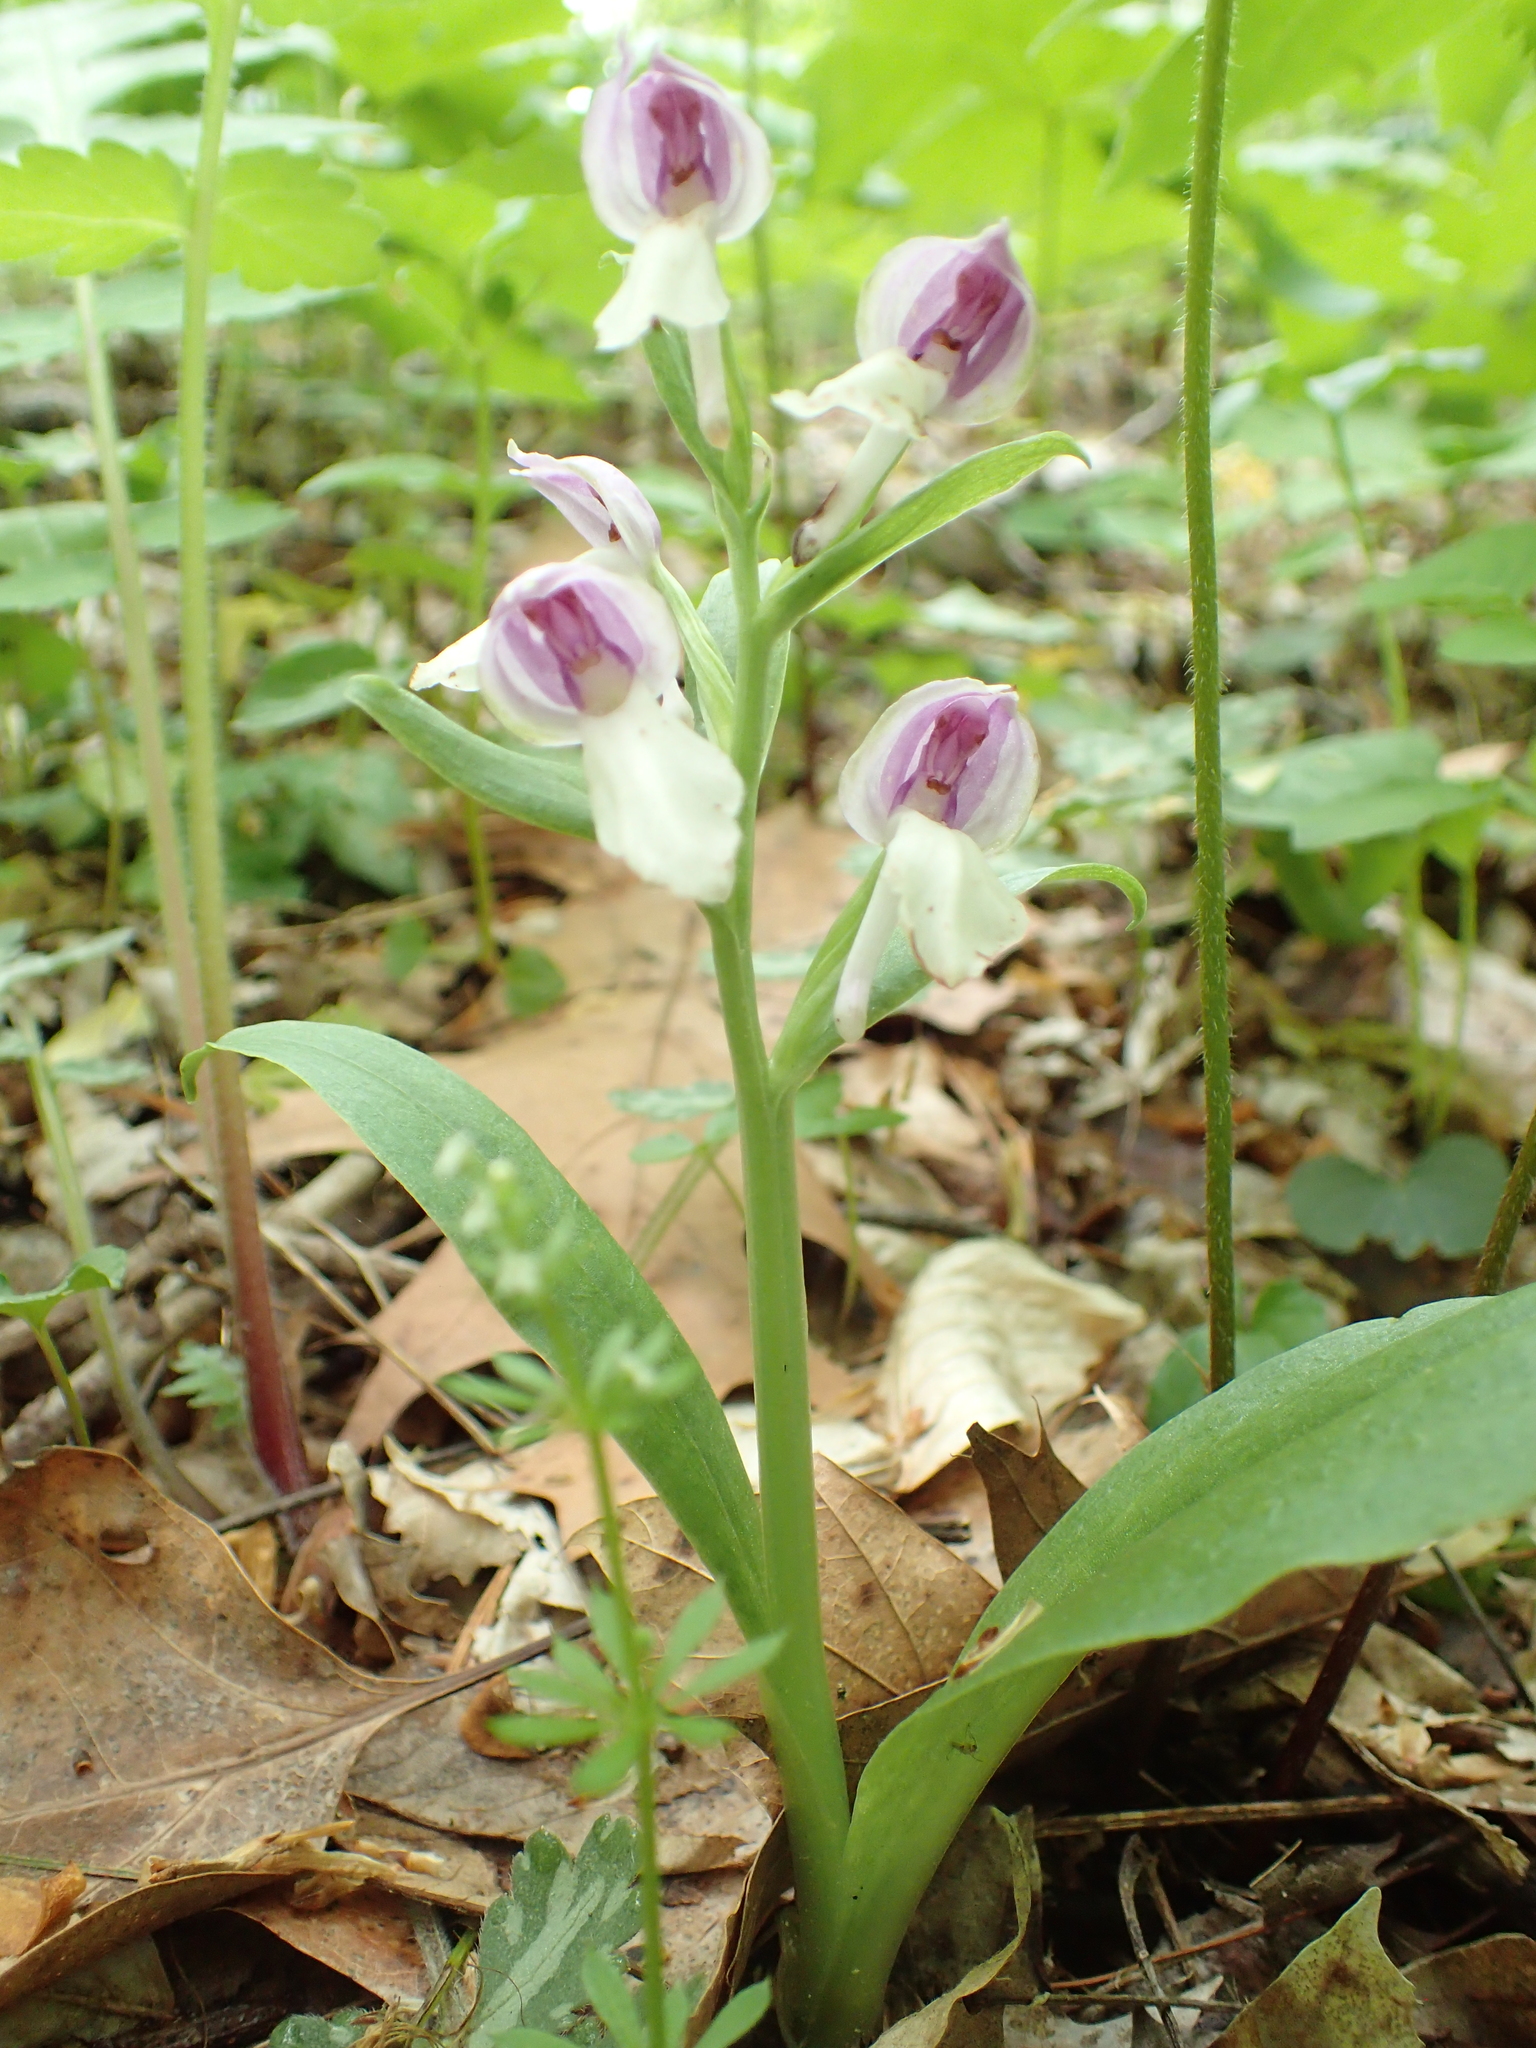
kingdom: Plantae
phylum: Tracheophyta
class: Liliopsida
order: Asparagales
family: Orchidaceae
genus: Galearis
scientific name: Galearis spectabilis
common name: Purple-hooded orchis
